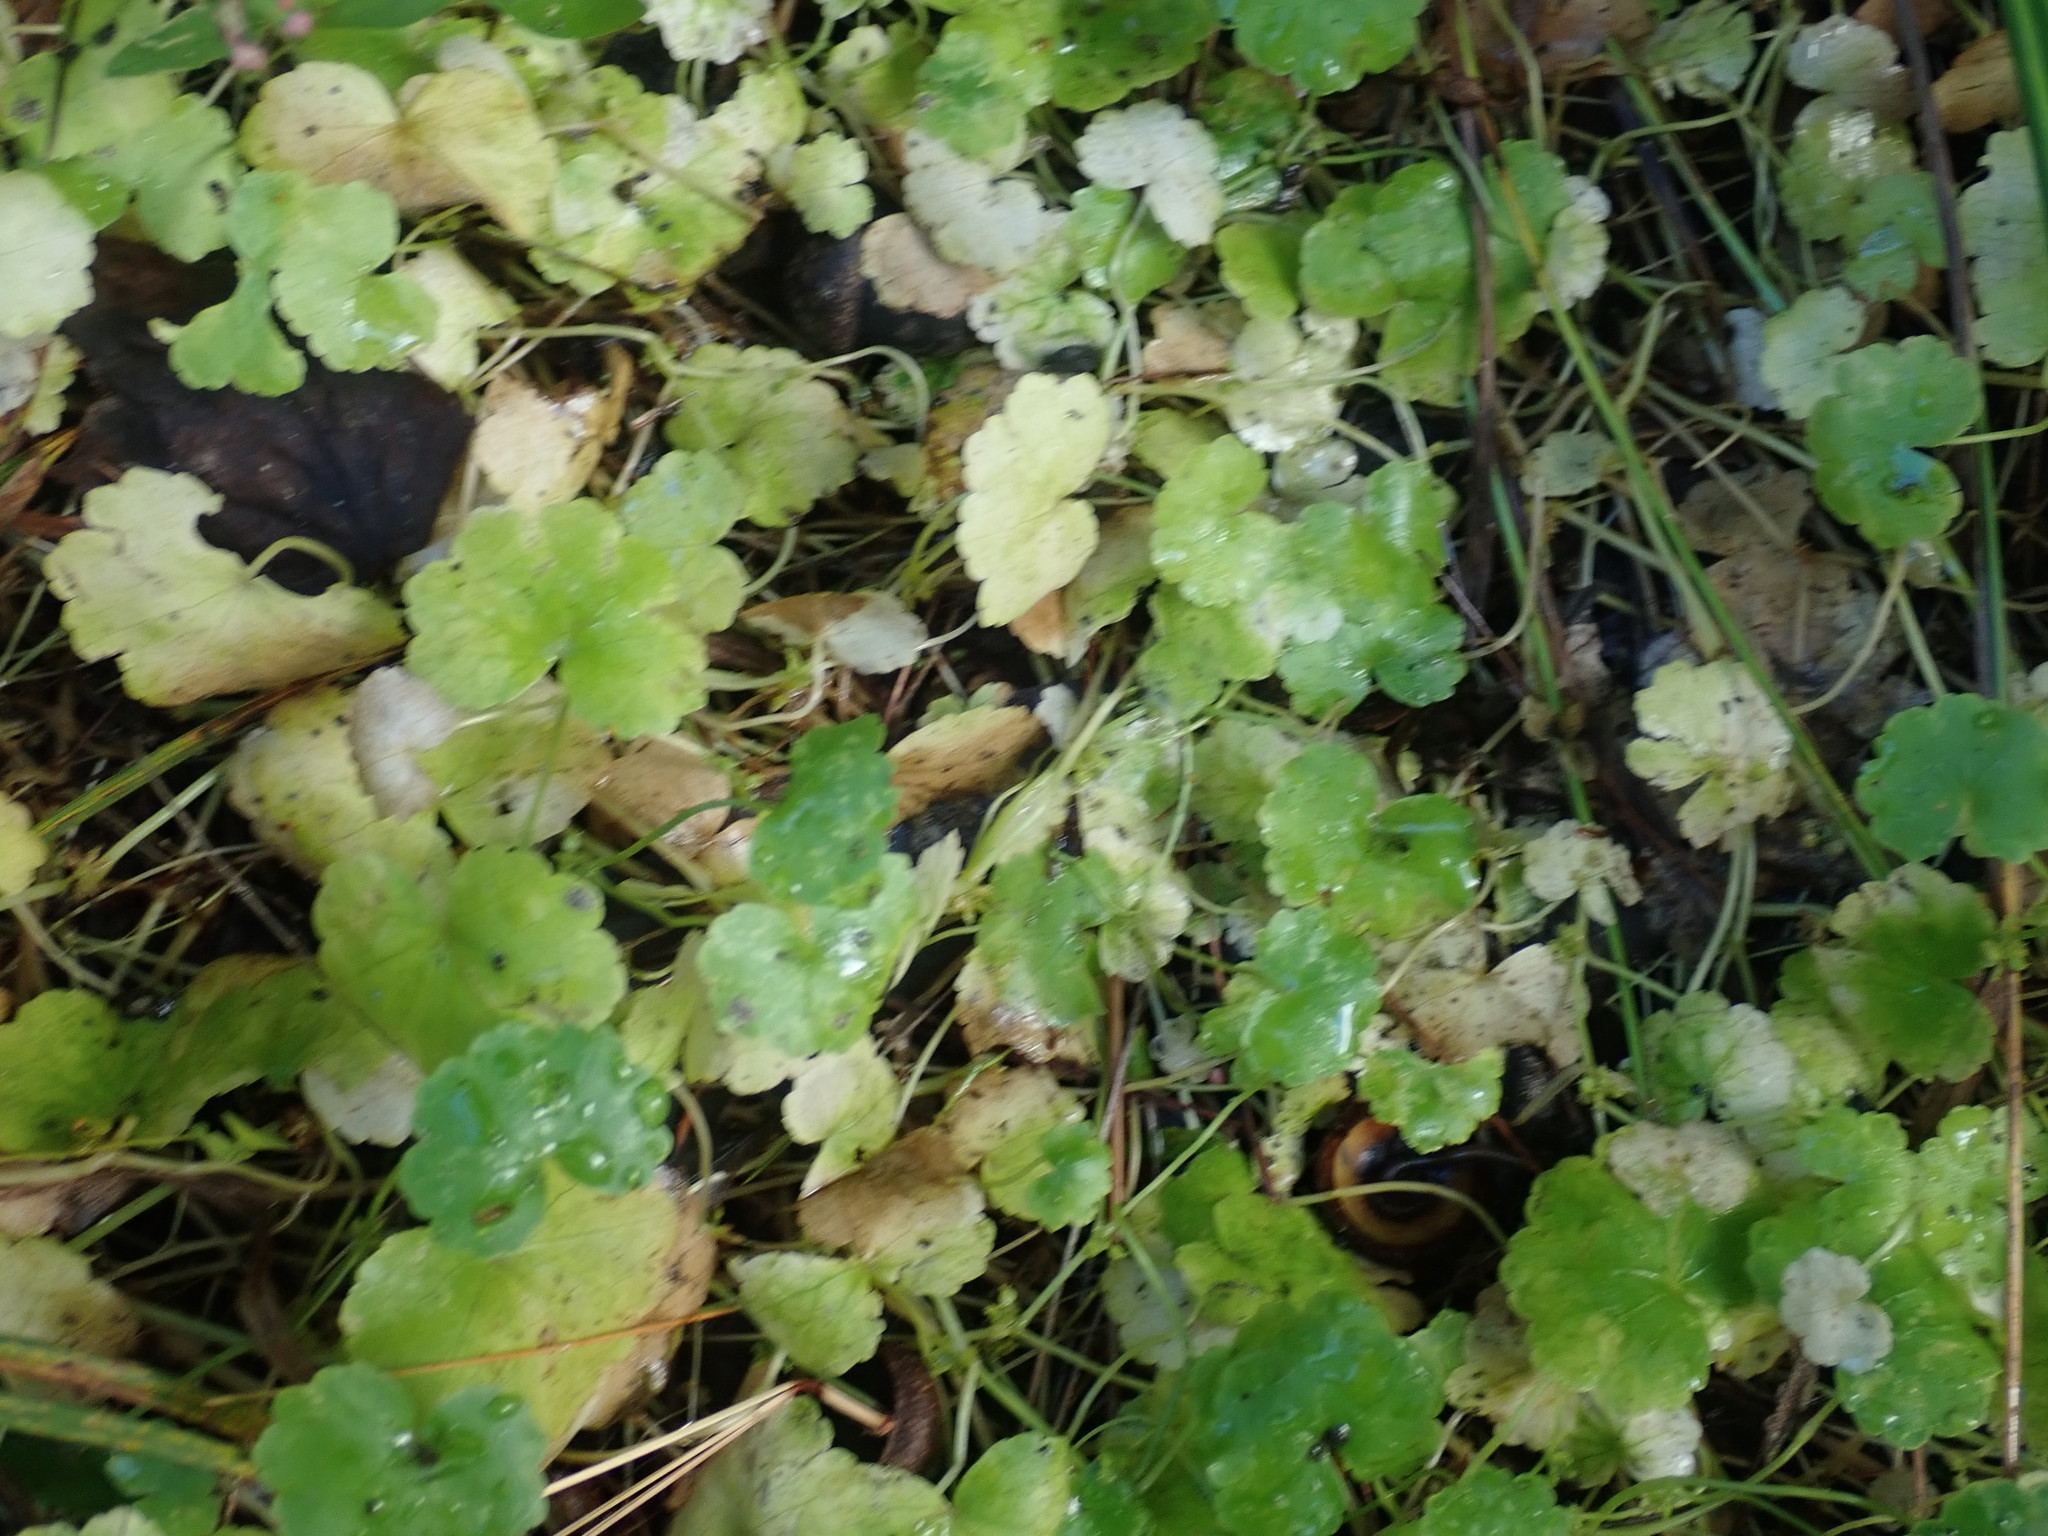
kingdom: Plantae
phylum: Tracheophyta
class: Magnoliopsida
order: Apiales
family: Araliaceae
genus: Hydrocotyle
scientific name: Hydrocotyle americana
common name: American water-pennywort
